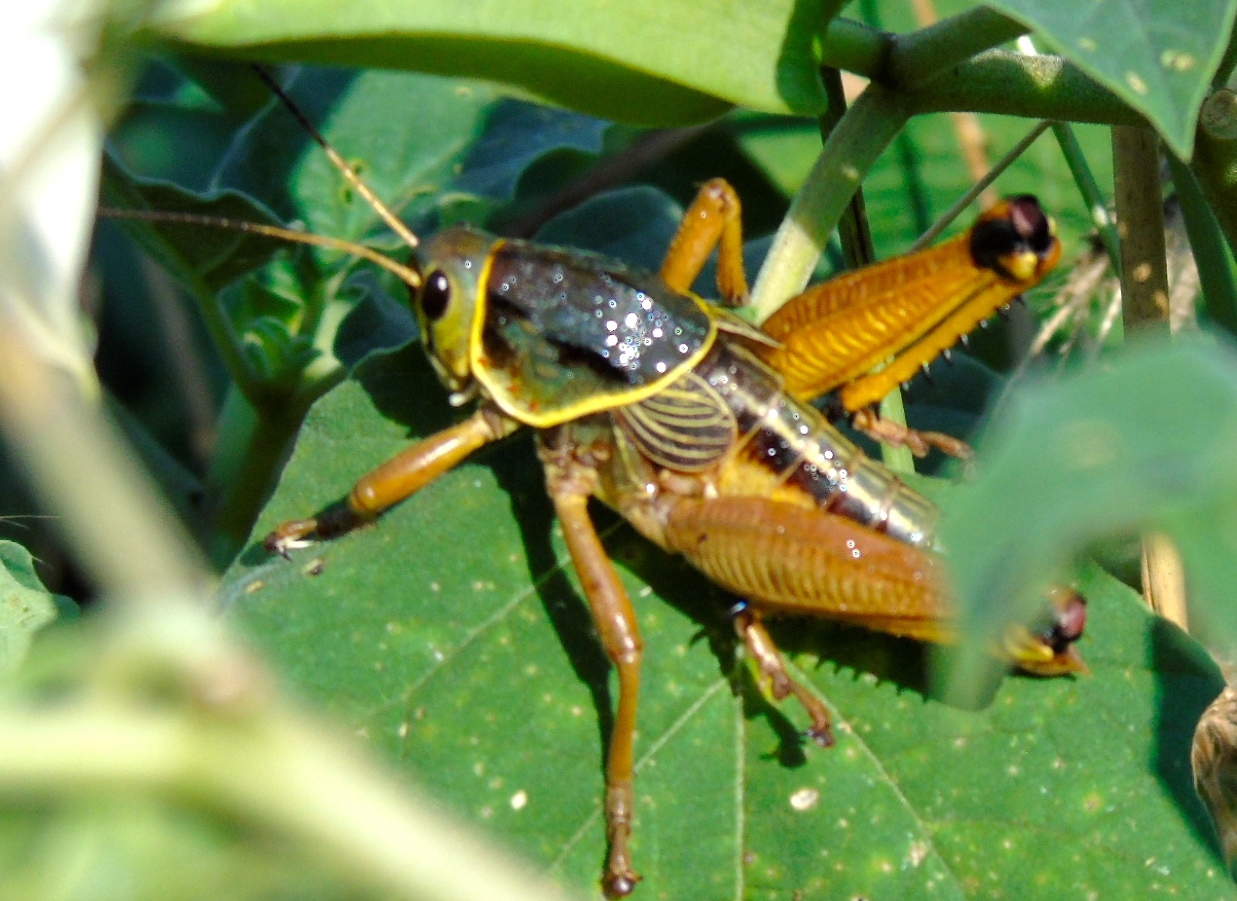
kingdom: Animalia
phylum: Arthropoda
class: Insecta
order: Orthoptera
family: Romaleidae
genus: Brachystola
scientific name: Brachystola
